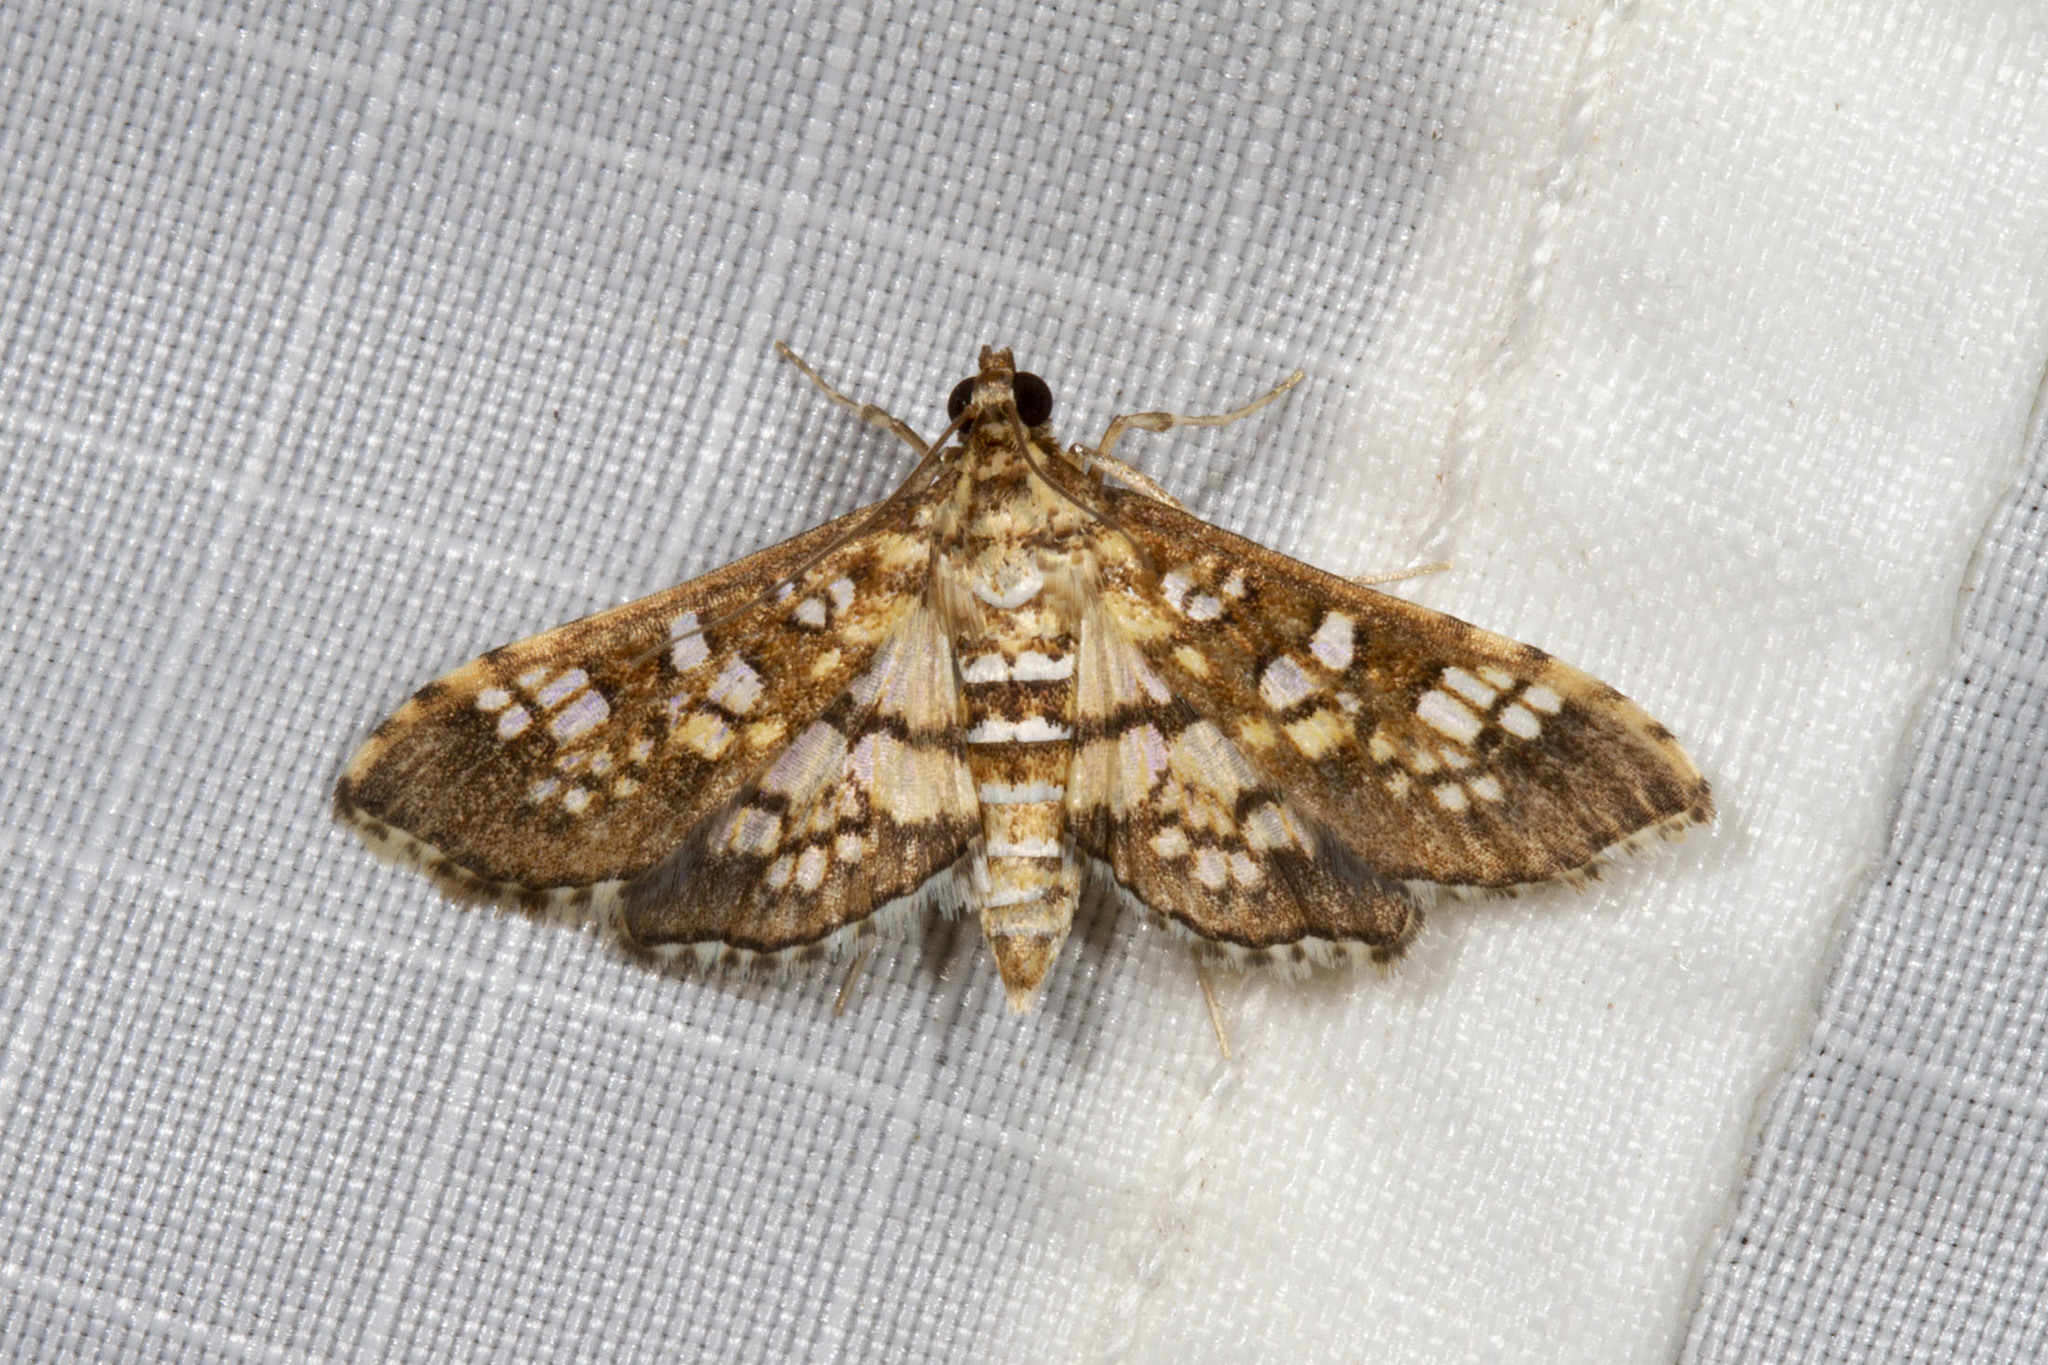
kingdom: Animalia
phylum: Arthropoda
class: Insecta
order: Lepidoptera
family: Crambidae
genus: Samea
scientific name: Samea ecclesialis
